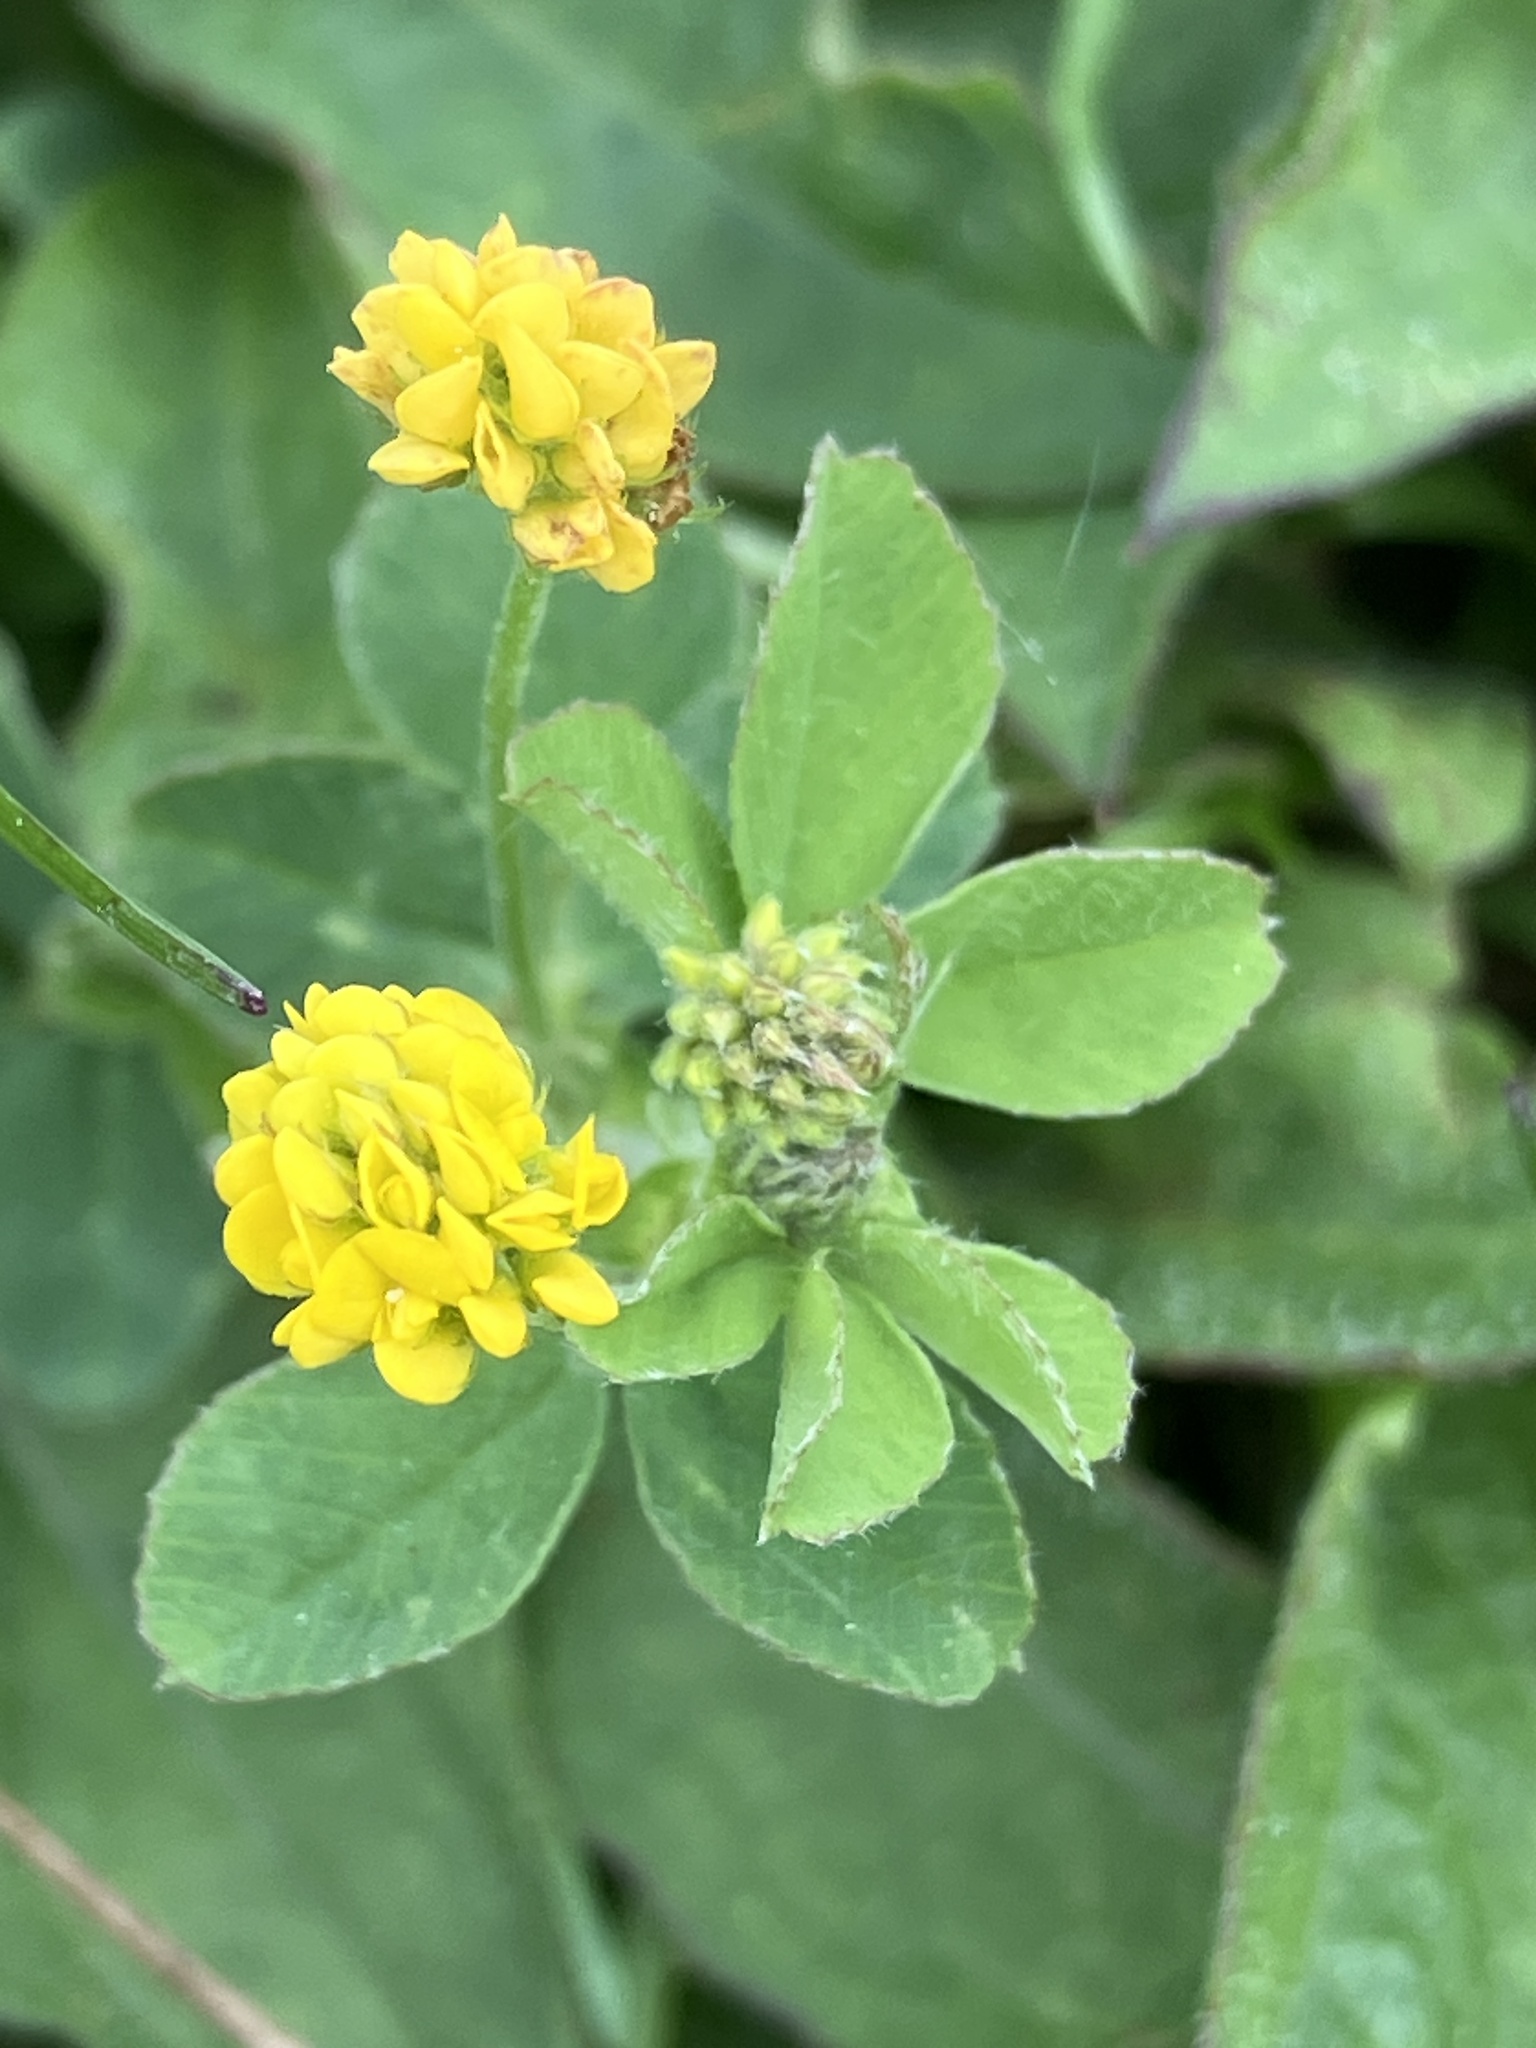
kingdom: Plantae
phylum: Tracheophyta
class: Magnoliopsida
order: Fabales
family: Fabaceae
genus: Medicago
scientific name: Medicago lupulina
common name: Black medick
